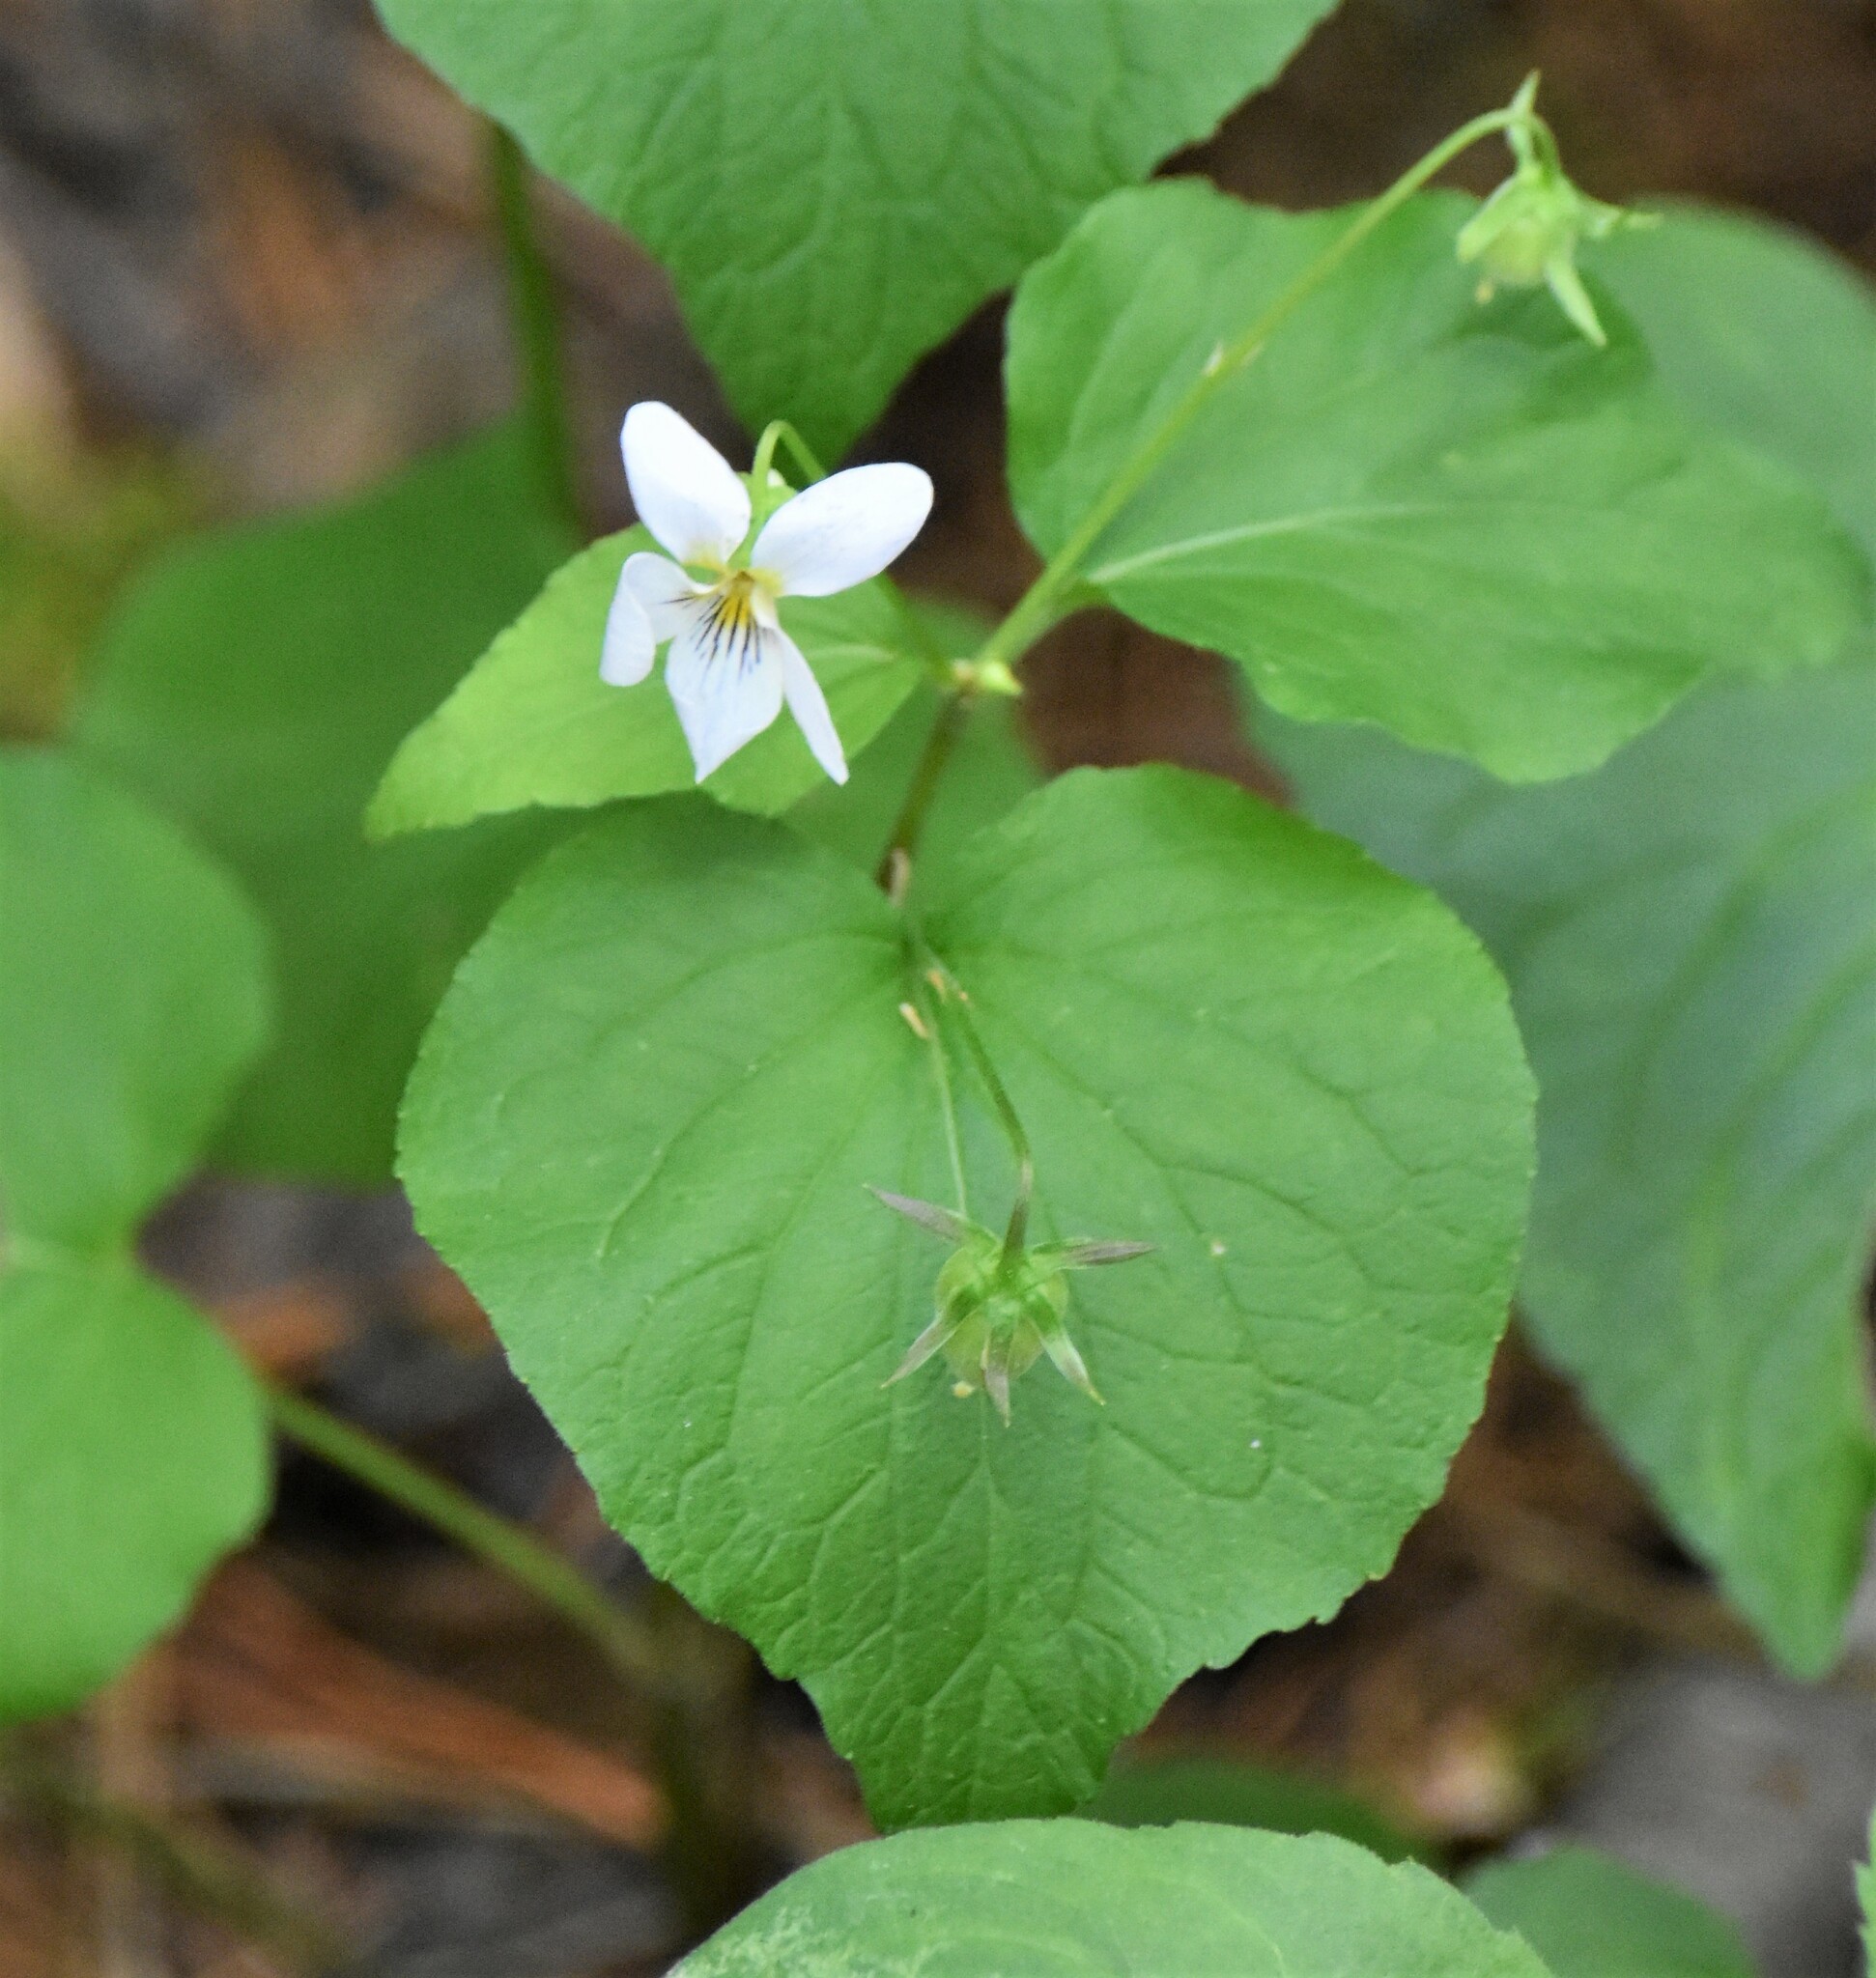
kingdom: Plantae
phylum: Tracheophyta
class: Magnoliopsida
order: Malpighiales
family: Violaceae
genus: Viola
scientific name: Viola canadensis
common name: Canada violet
